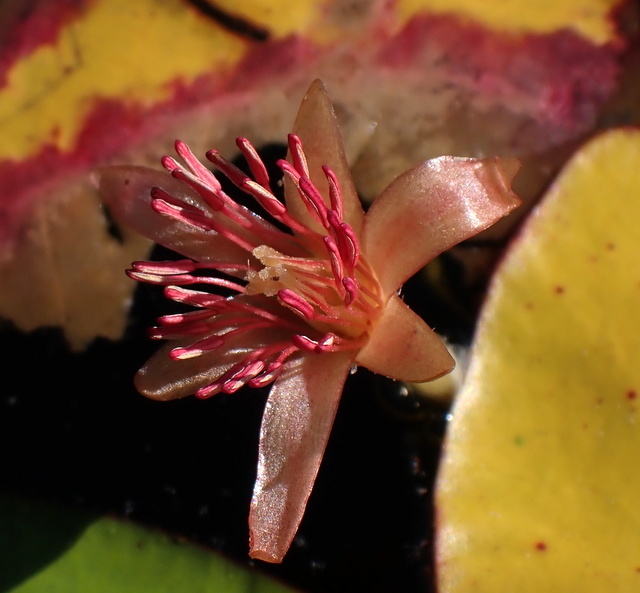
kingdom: Plantae
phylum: Tracheophyta
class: Magnoliopsida
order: Nymphaeales
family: Cabombaceae
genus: Brasenia
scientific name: Brasenia schreberi
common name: Water-shield
